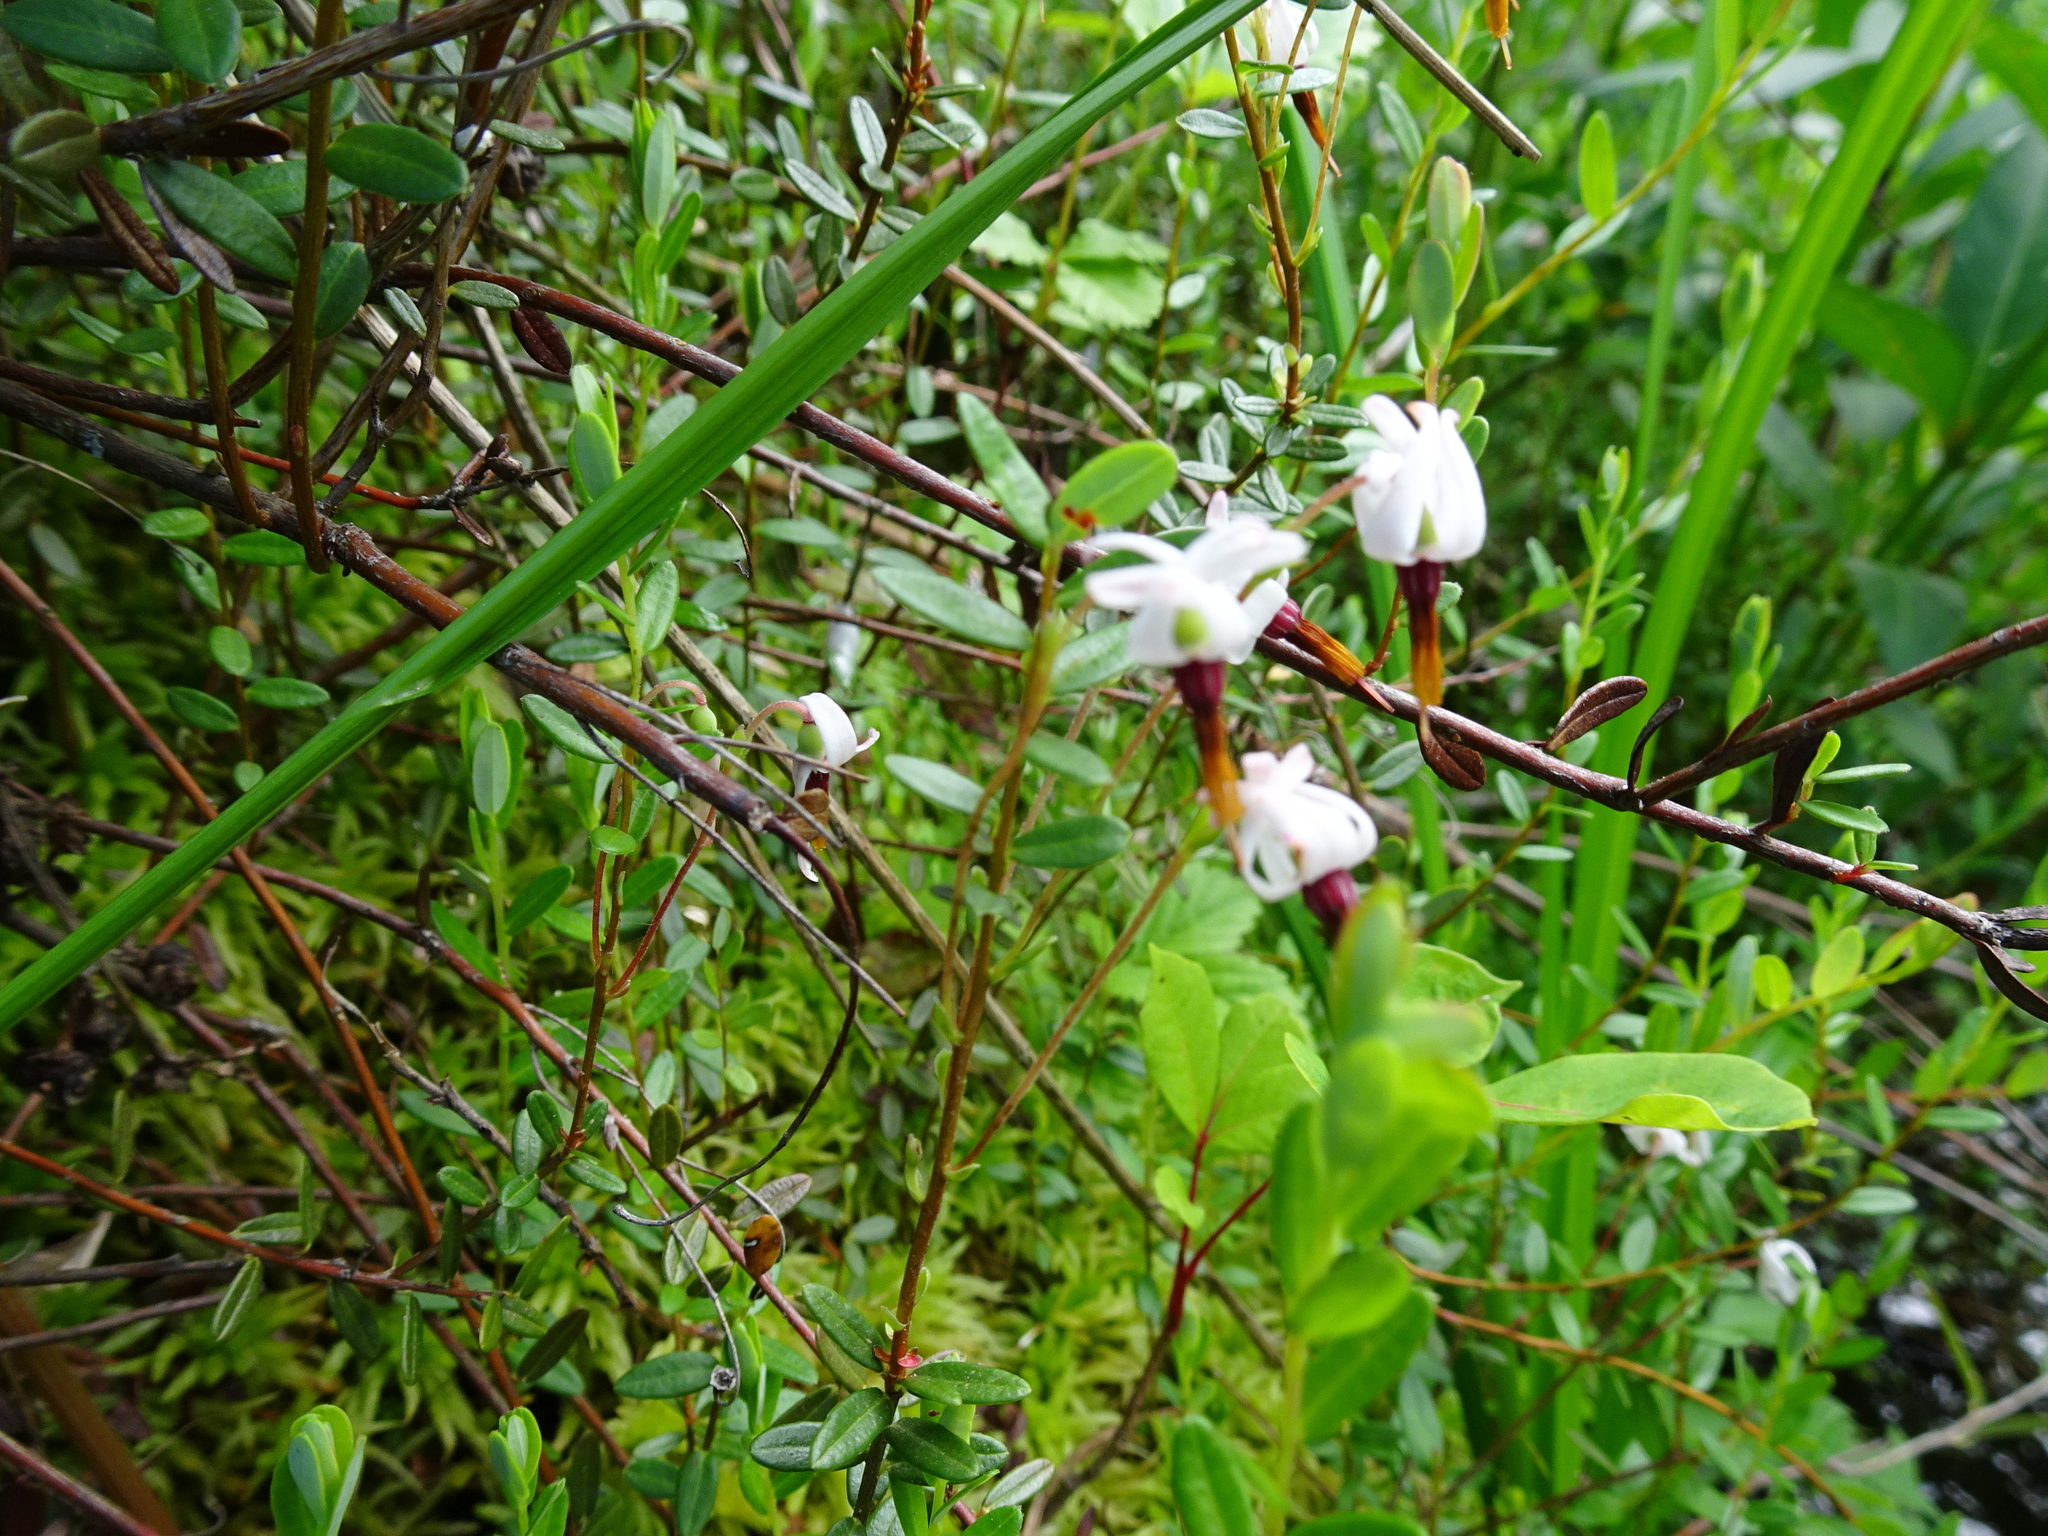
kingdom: Plantae
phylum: Tracheophyta
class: Magnoliopsida
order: Ericales
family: Ericaceae
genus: Vaccinium
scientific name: Vaccinium macrocarpon
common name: American cranberry
